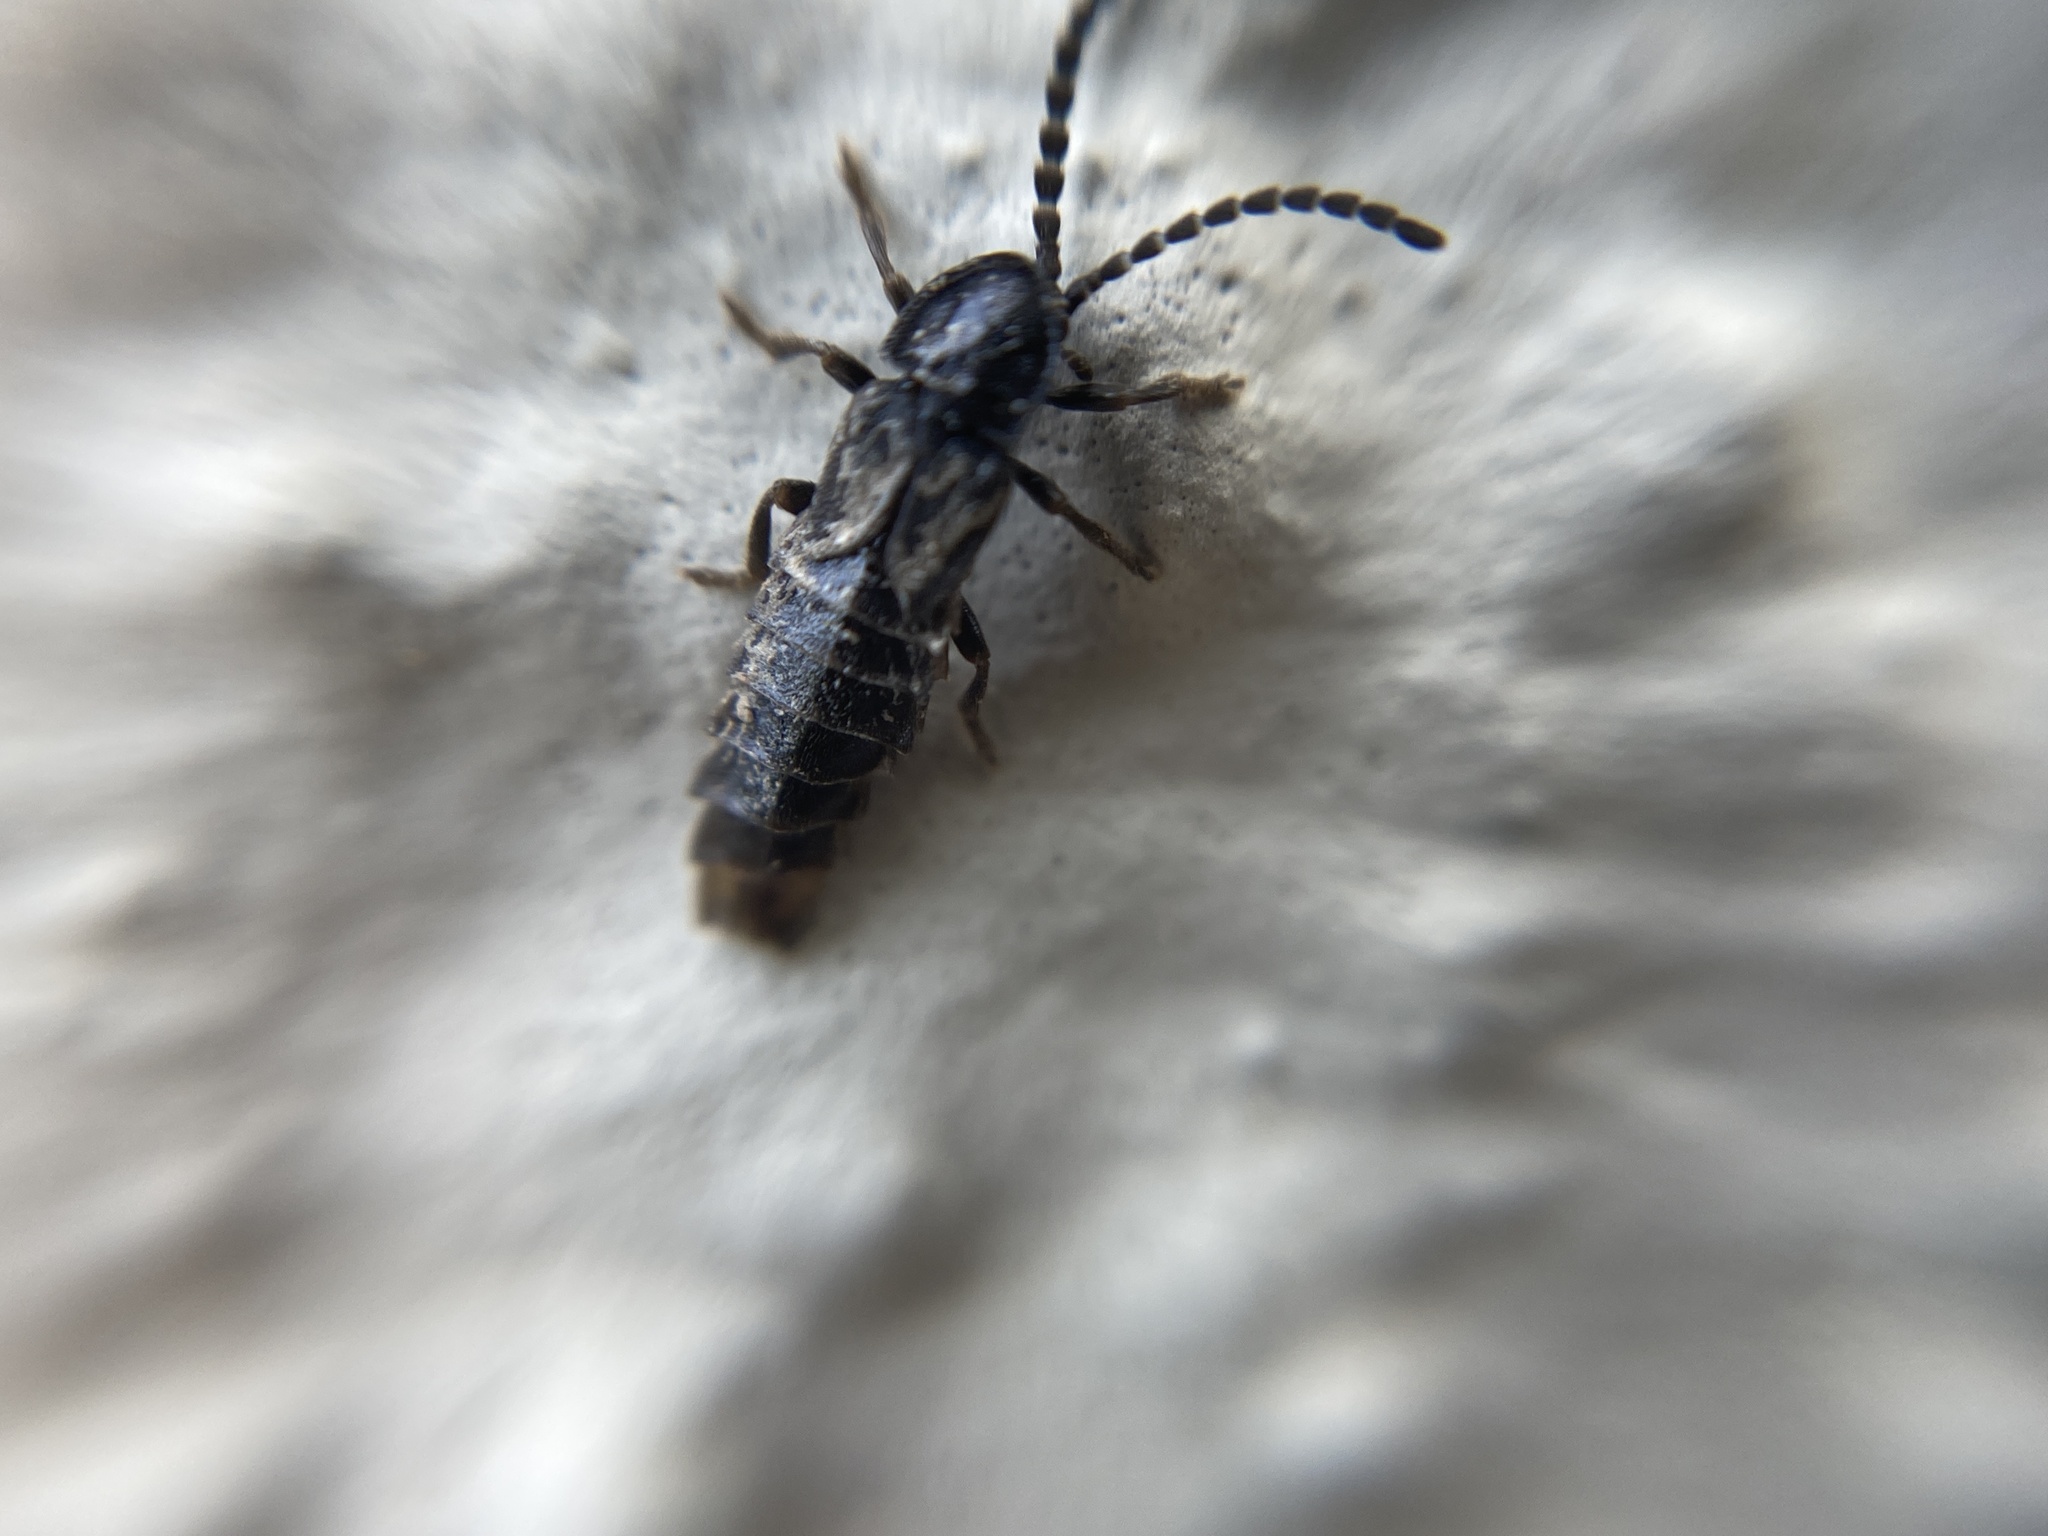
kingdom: Animalia
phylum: Arthropoda
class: Insecta
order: Coleoptera
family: Lampyridae
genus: Phosphaenus
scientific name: Phosphaenus hemipterus
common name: Short-winged firefly
